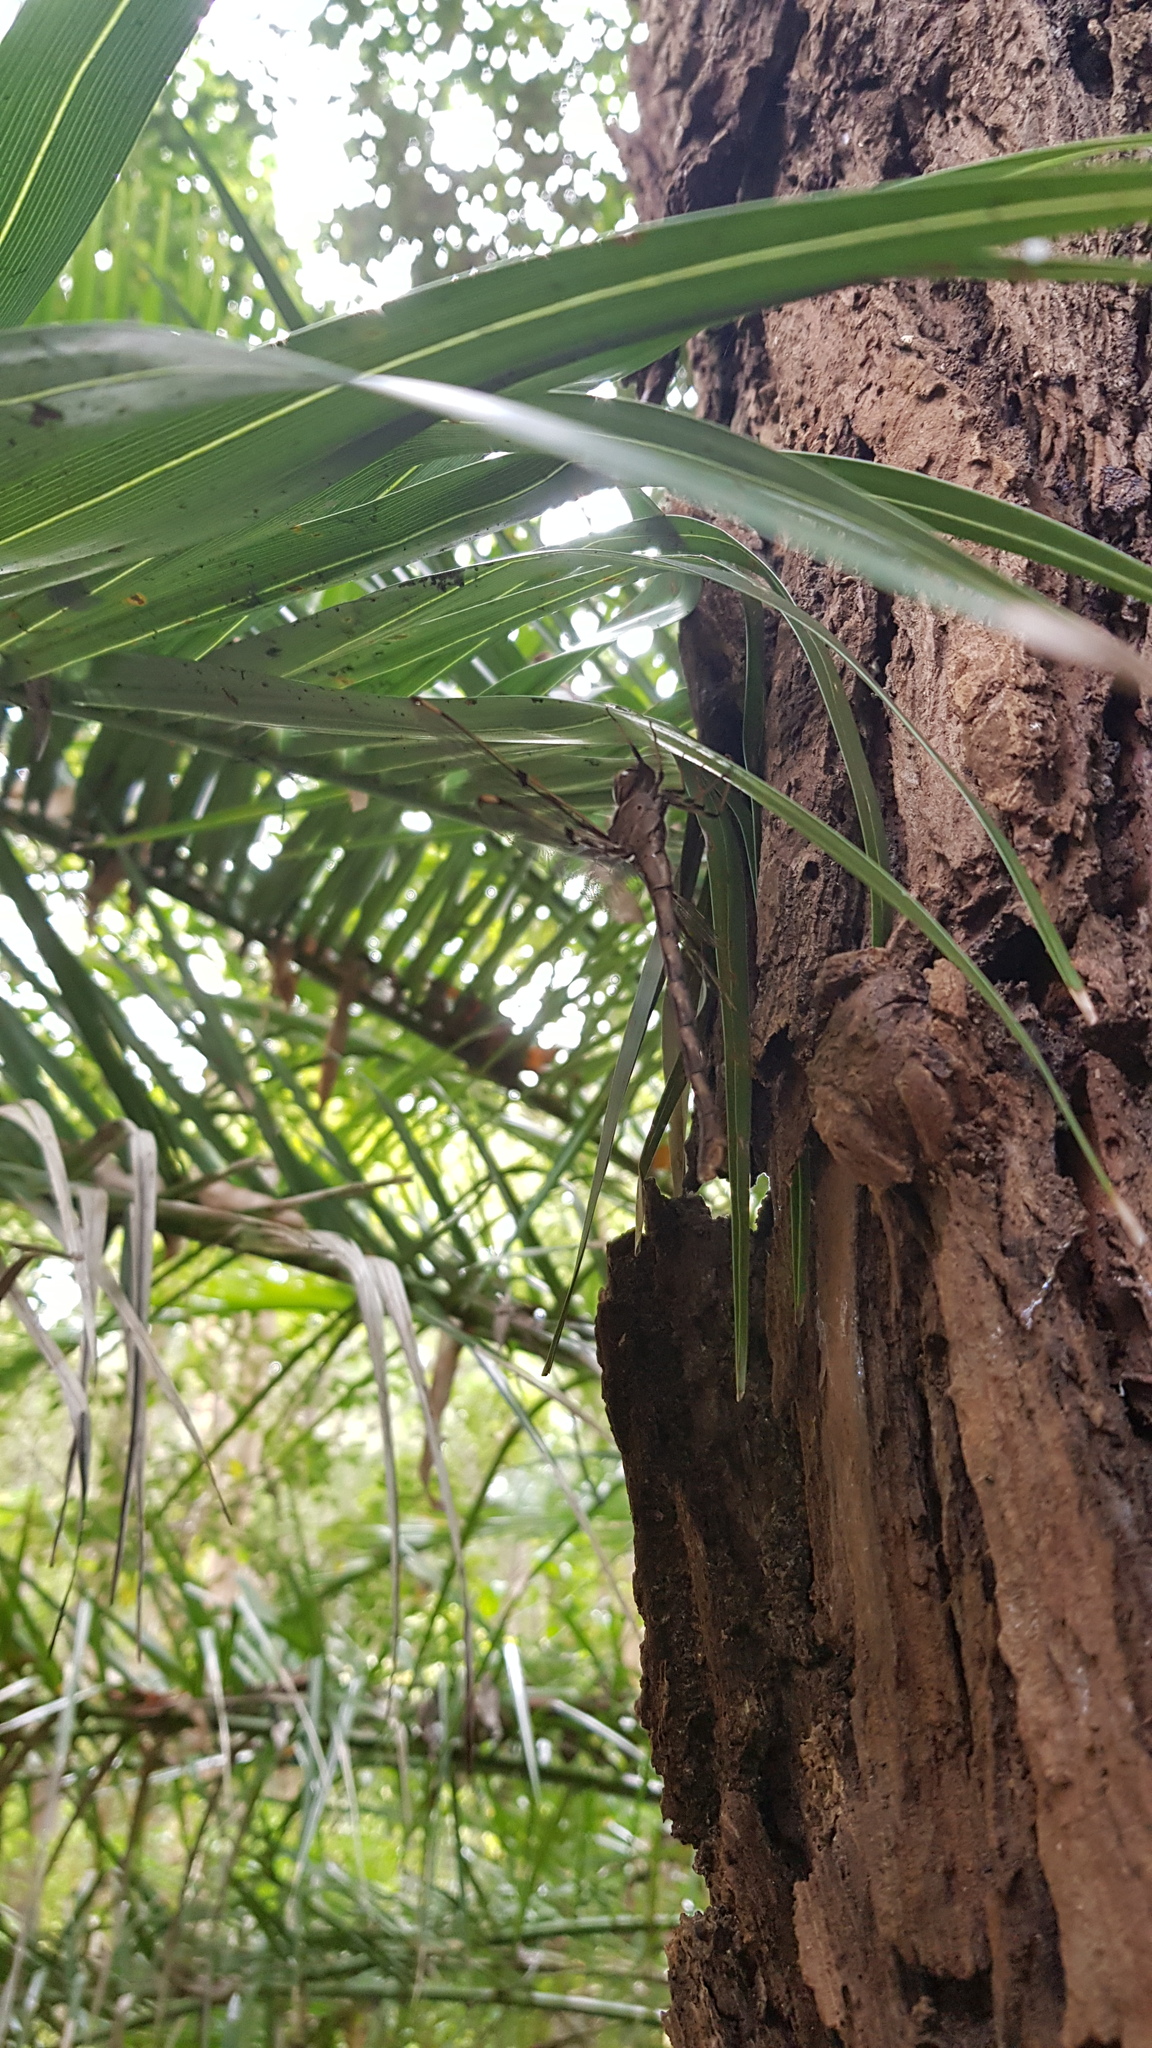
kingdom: Animalia
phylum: Arthropoda
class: Insecta
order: Odonata
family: Aeshnidae
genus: Telephlebia
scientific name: Telephlebia godeffroyi
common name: Eastern evening darner
